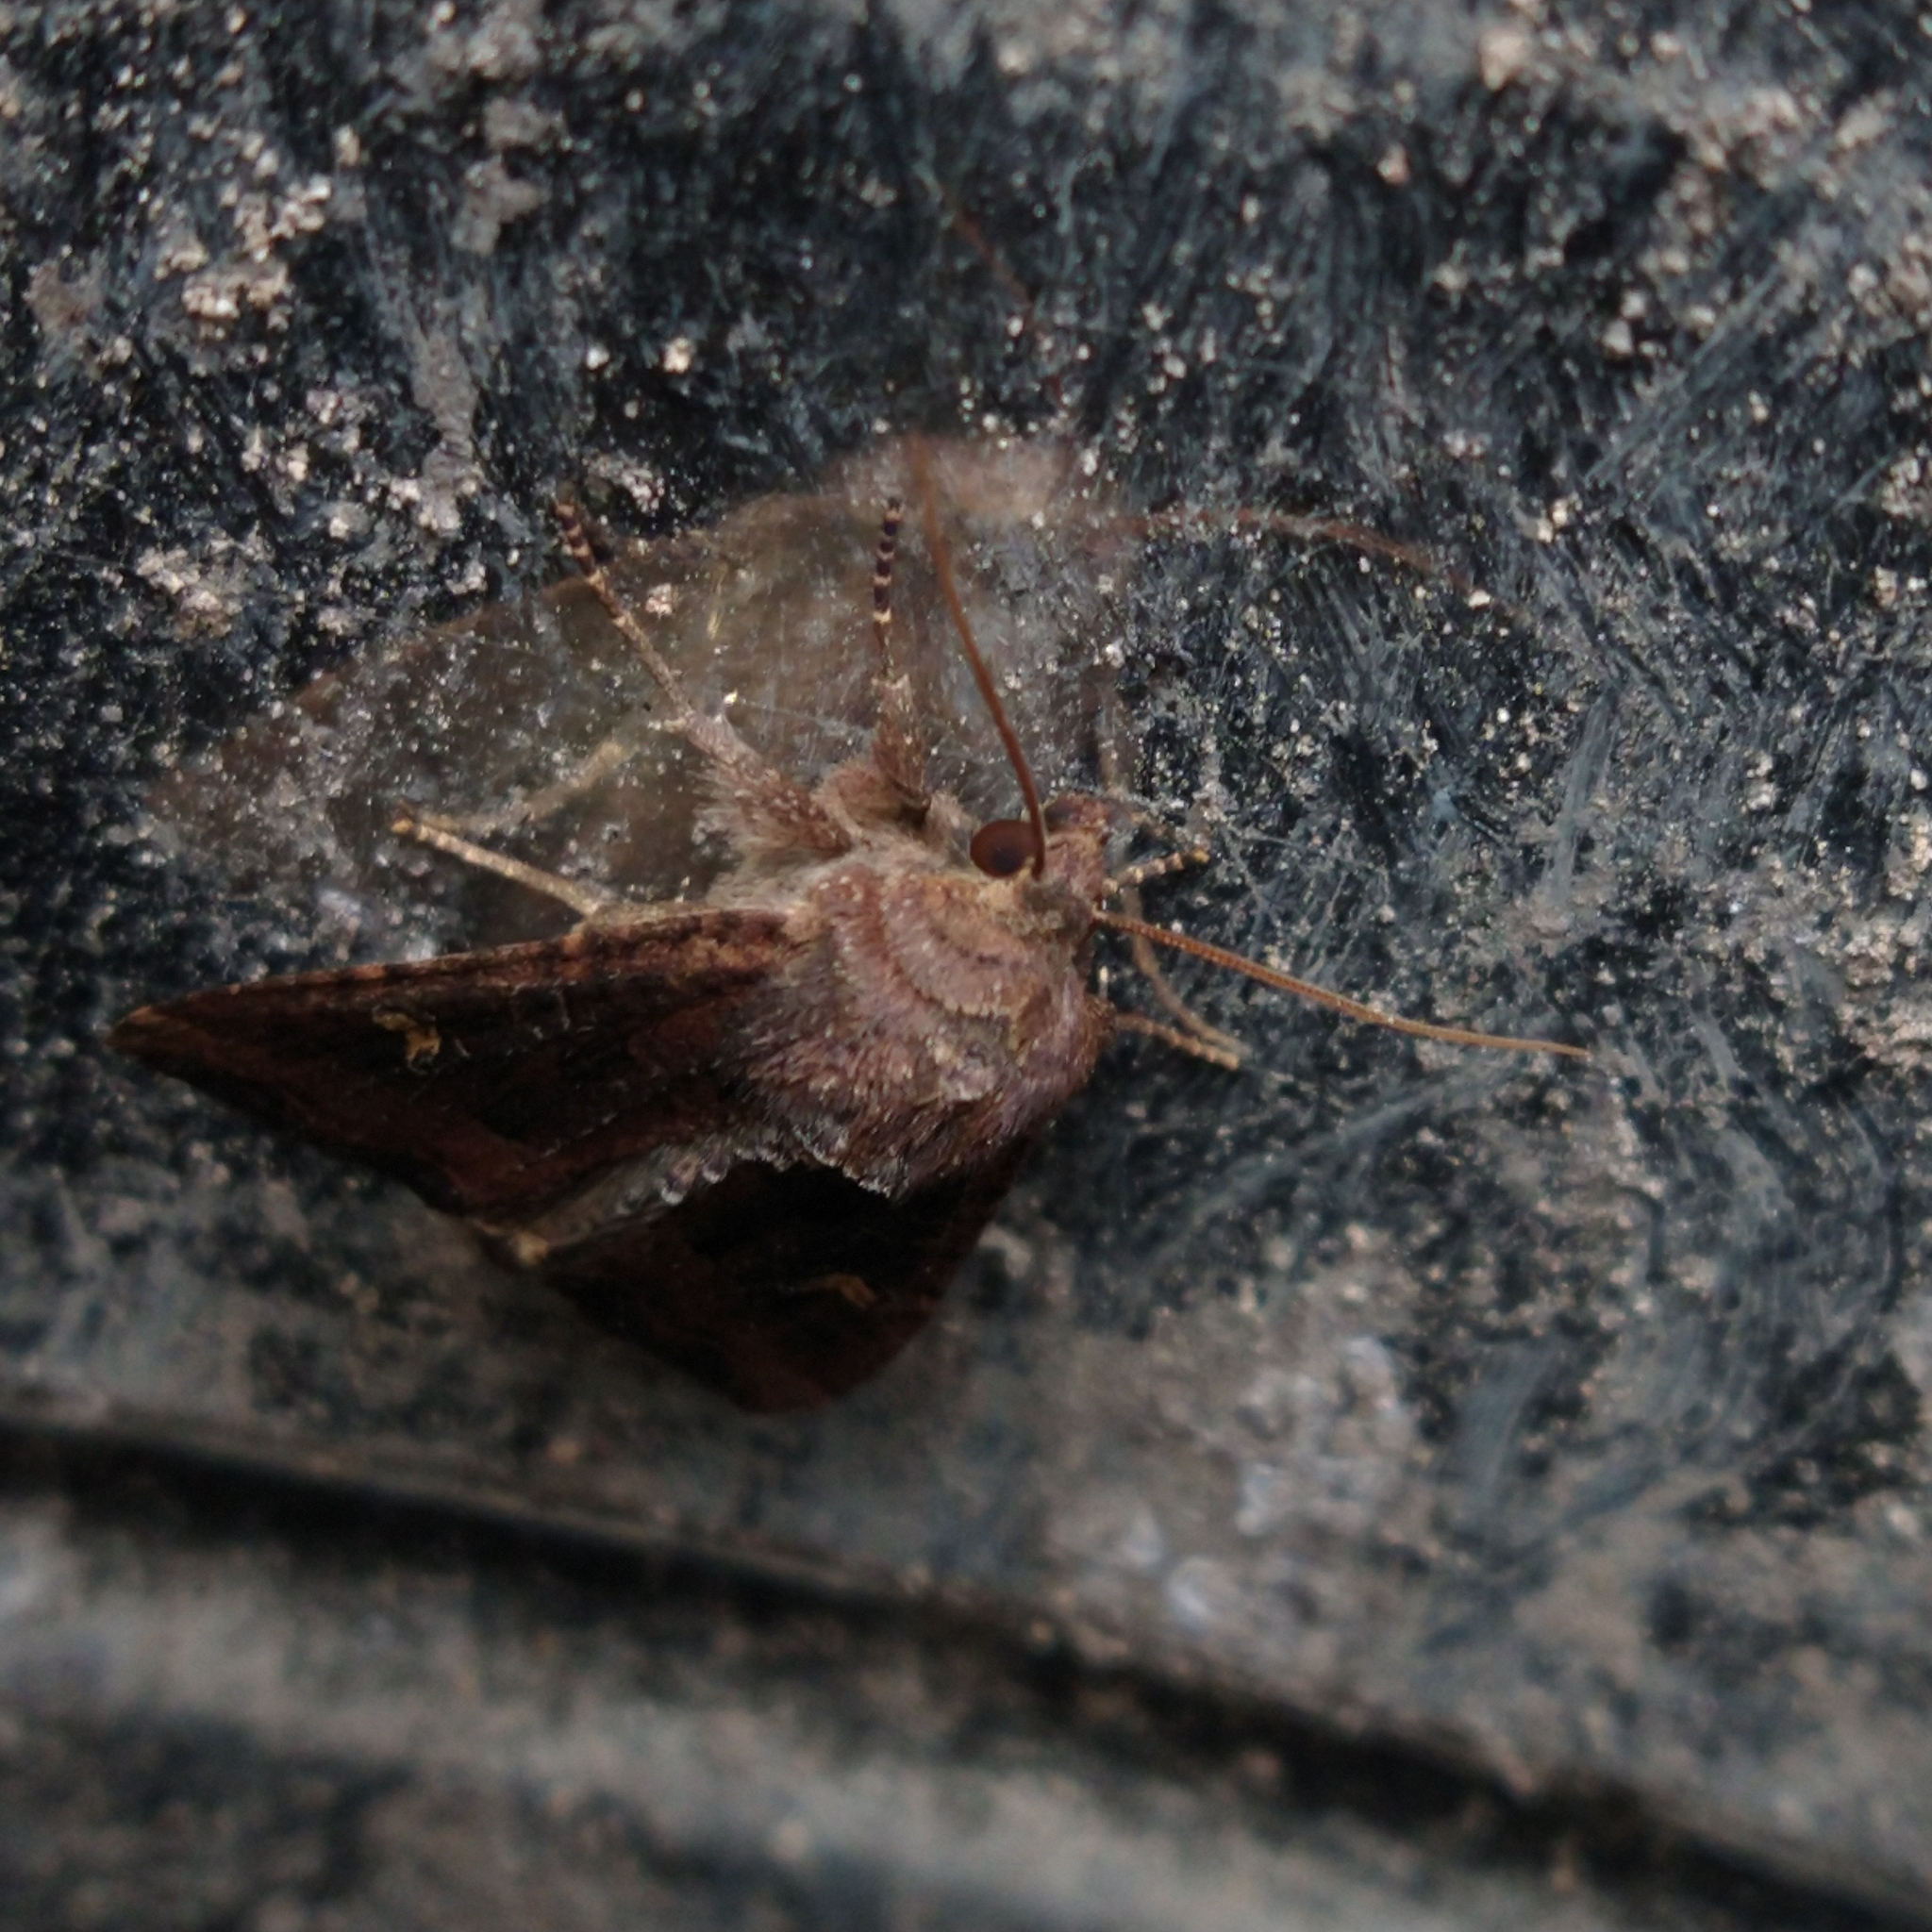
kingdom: Animalia
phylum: Arthropoda
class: Insecta
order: Lepidoptera
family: Noctuidae
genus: Helotropha
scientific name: Helotropha leucostigma
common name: The crescent
